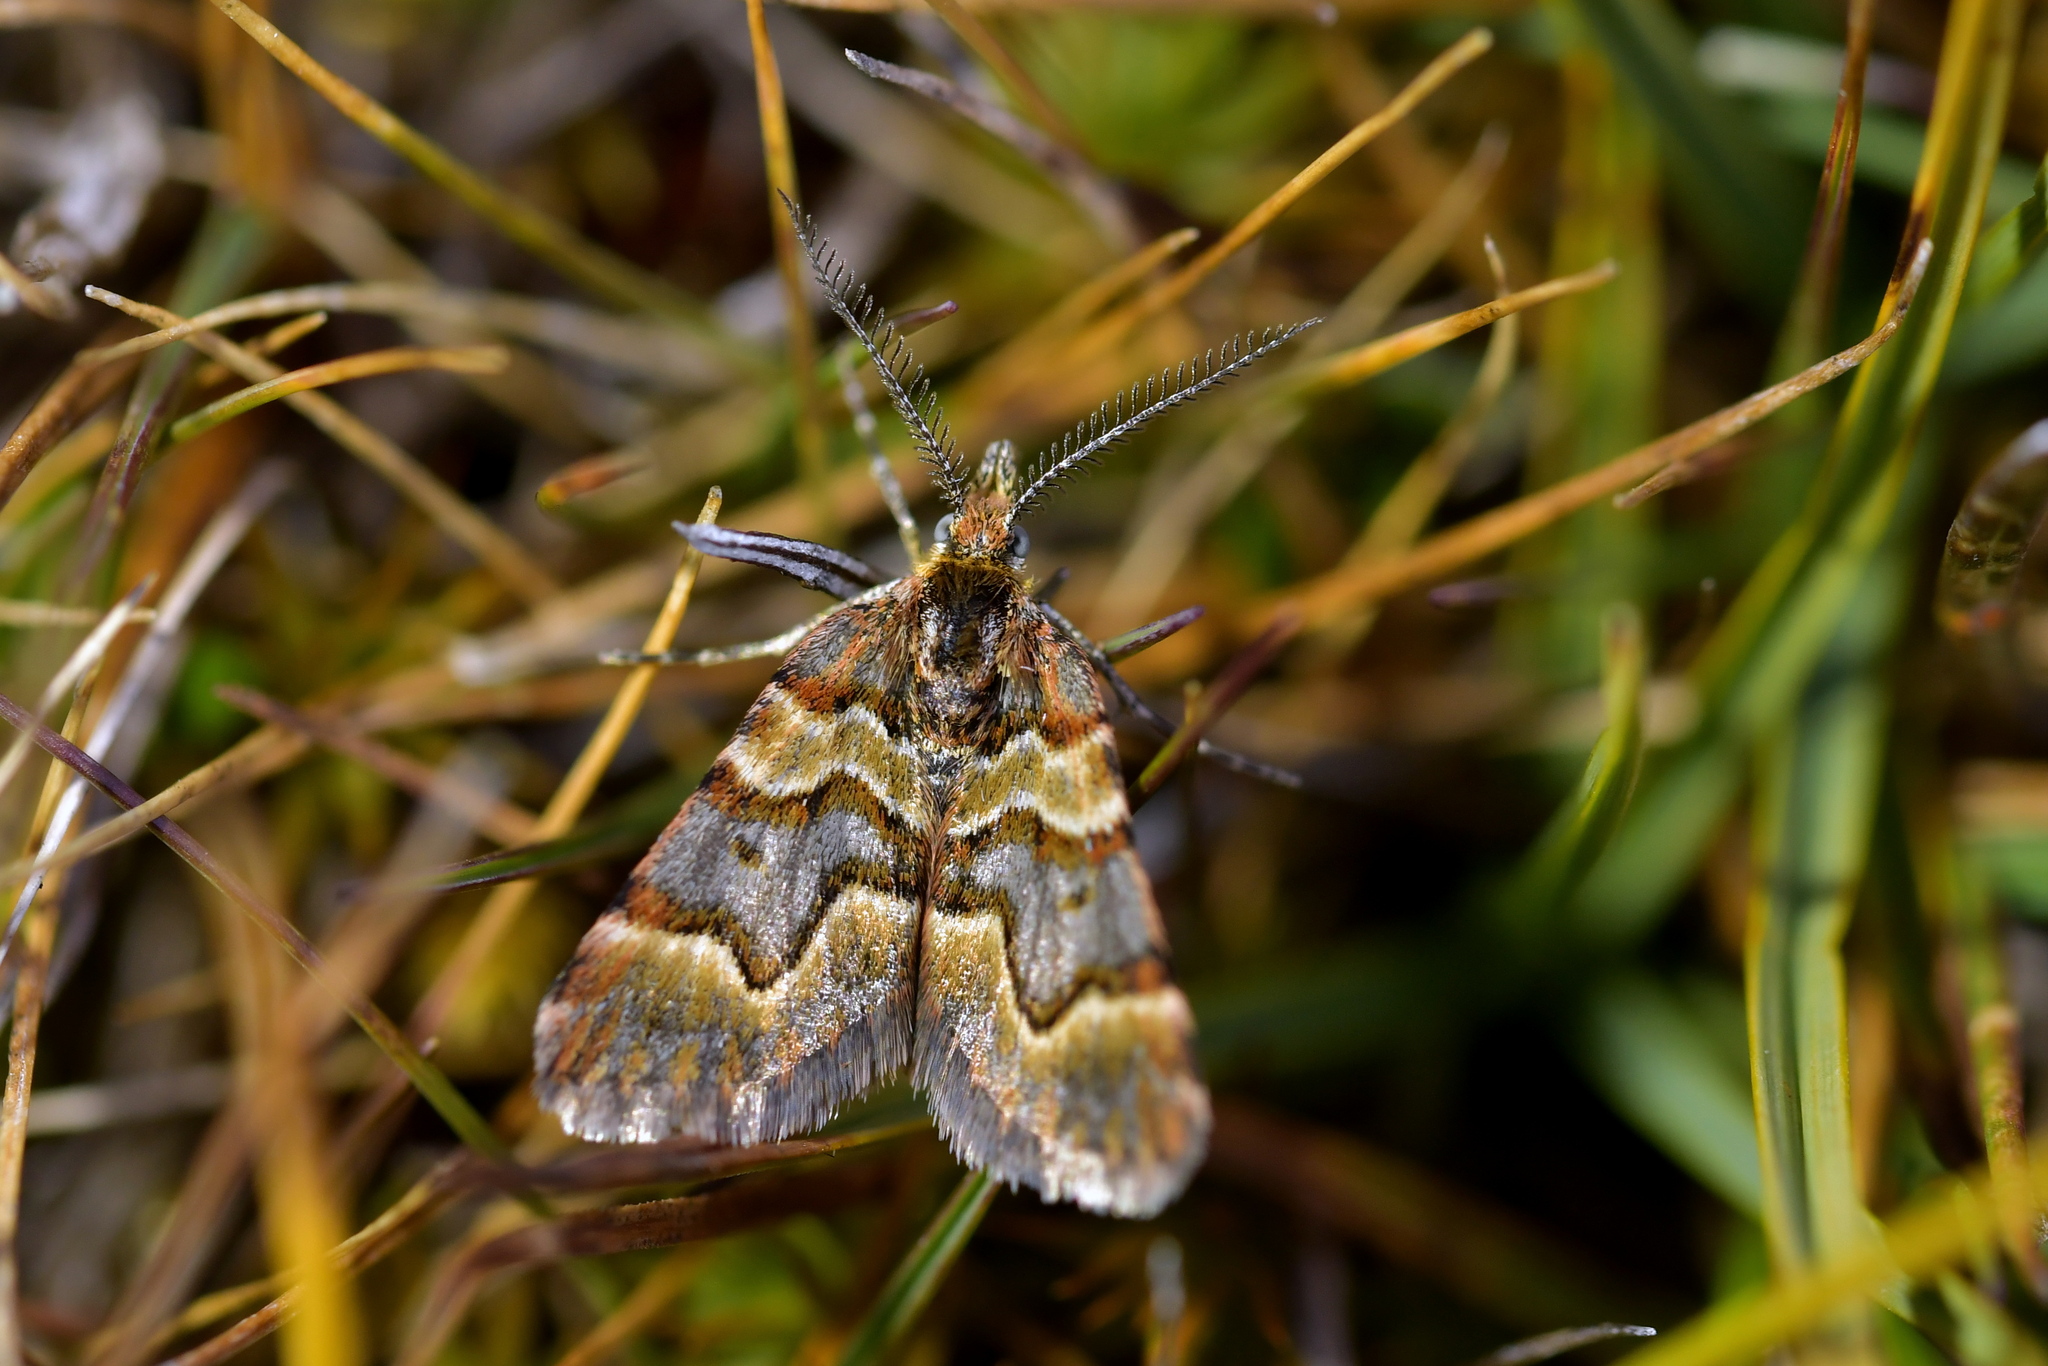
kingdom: Animalia
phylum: Arthropoda
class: Insecta
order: Lepidoptera
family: Geometridae
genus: Arctesthes
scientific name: Arctesthes siris
